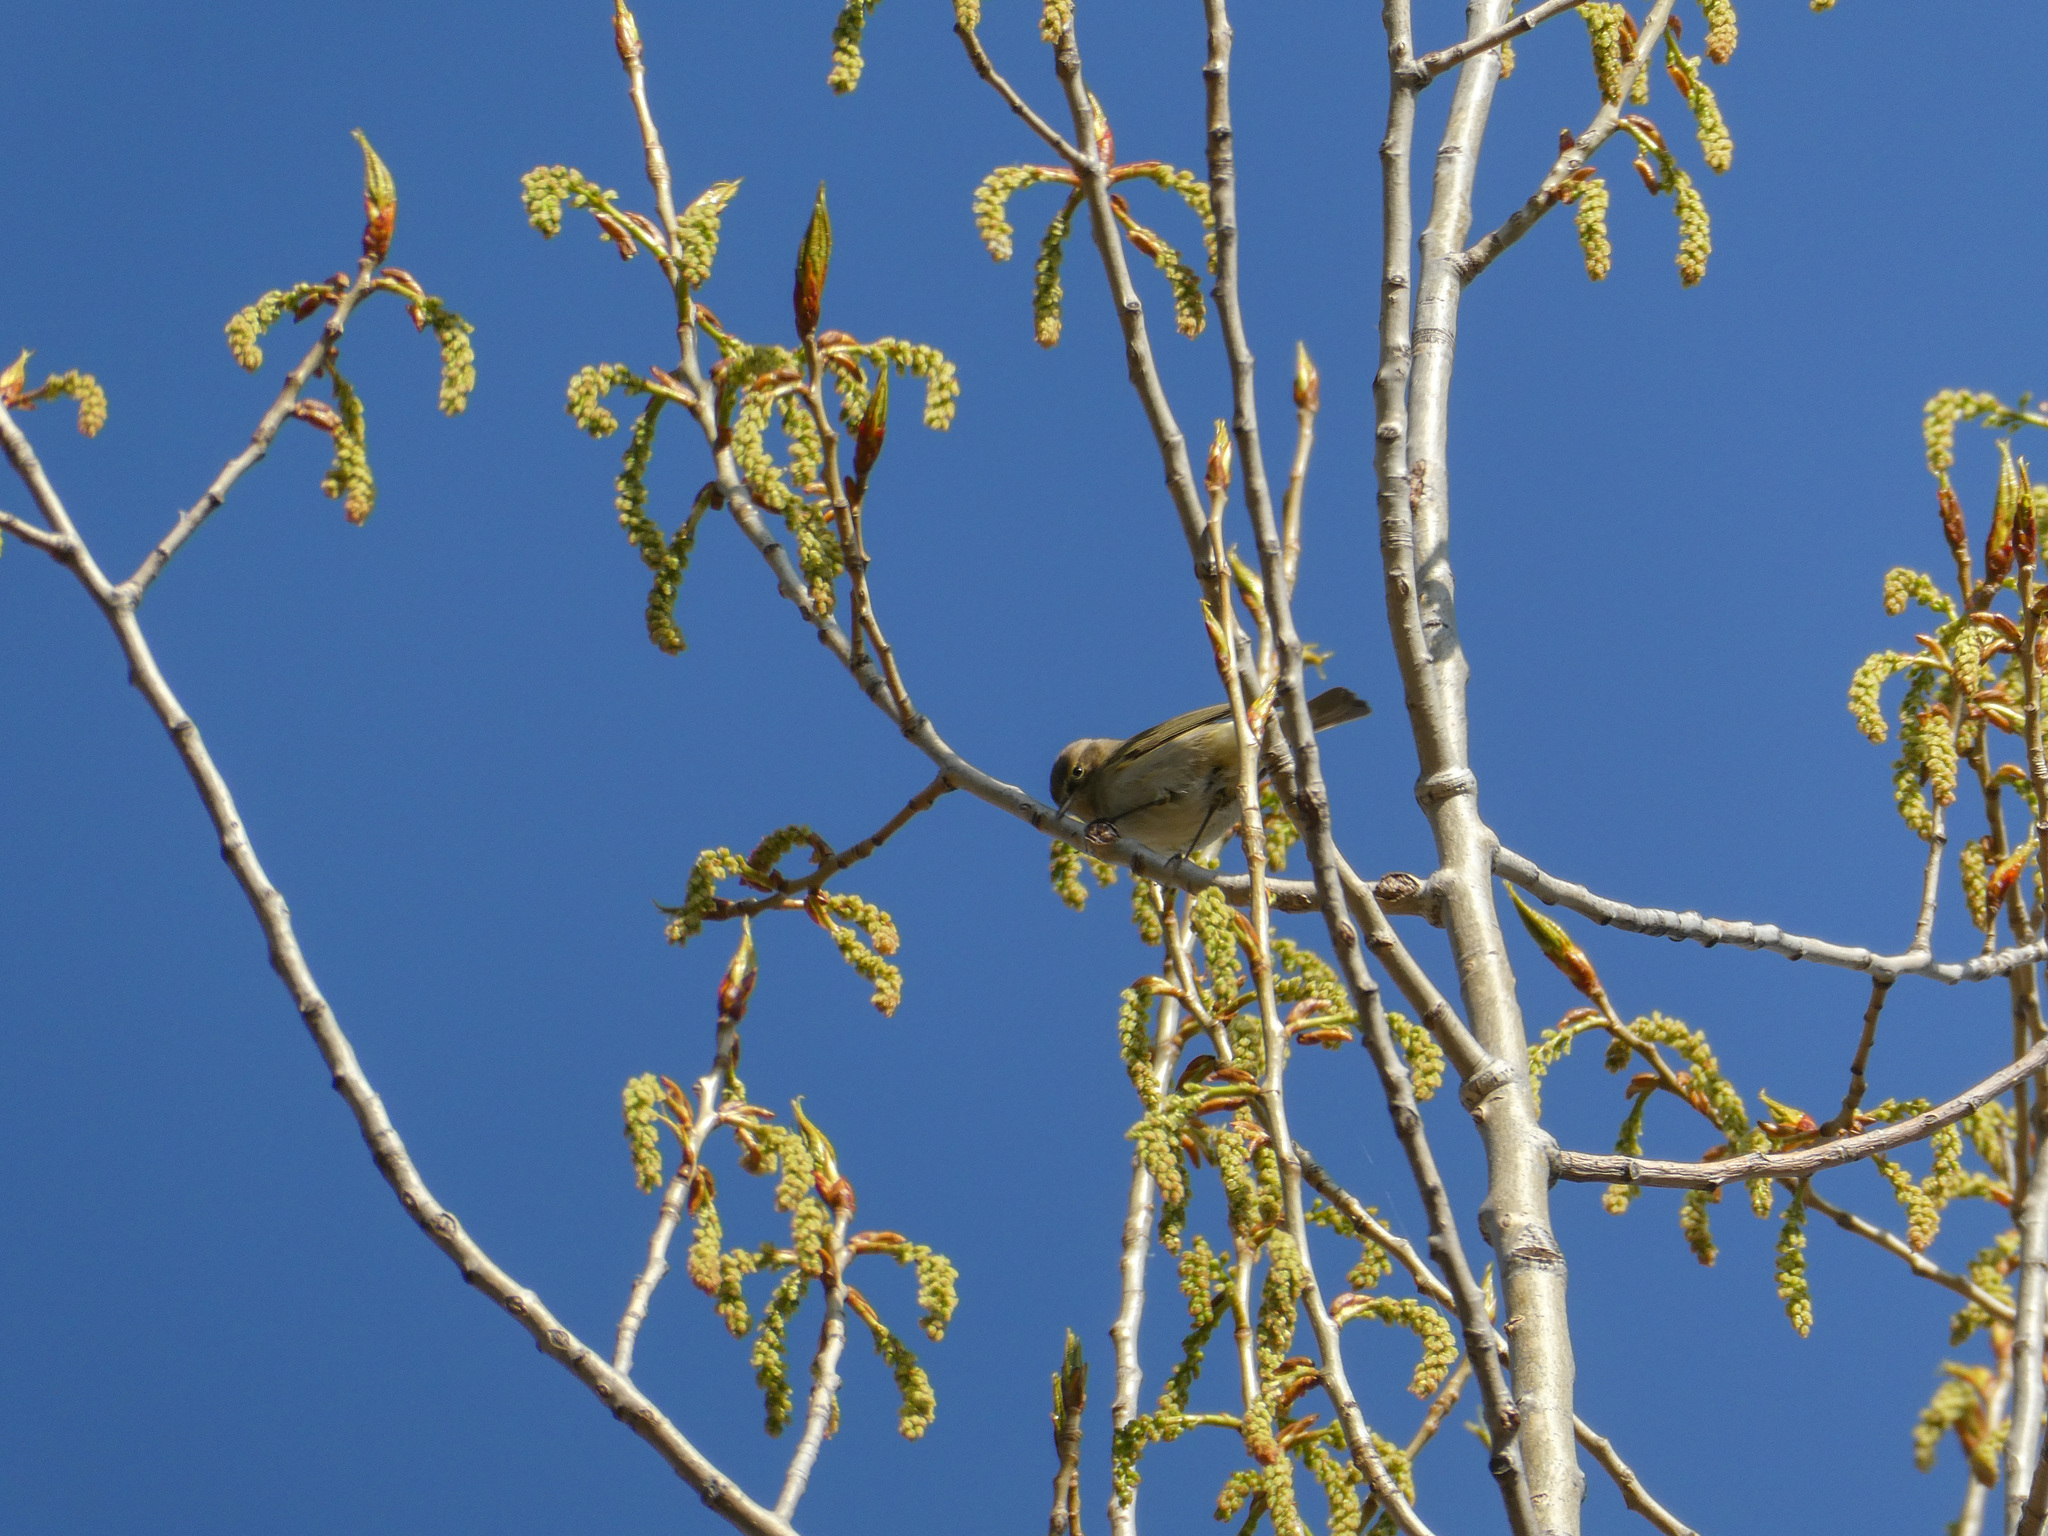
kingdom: Animalia
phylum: Chordata
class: Aves
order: Passeriformes
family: Phylloscopidae
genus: Phylloscopus
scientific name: Phylloscopus collybita
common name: Common chiffchaff
